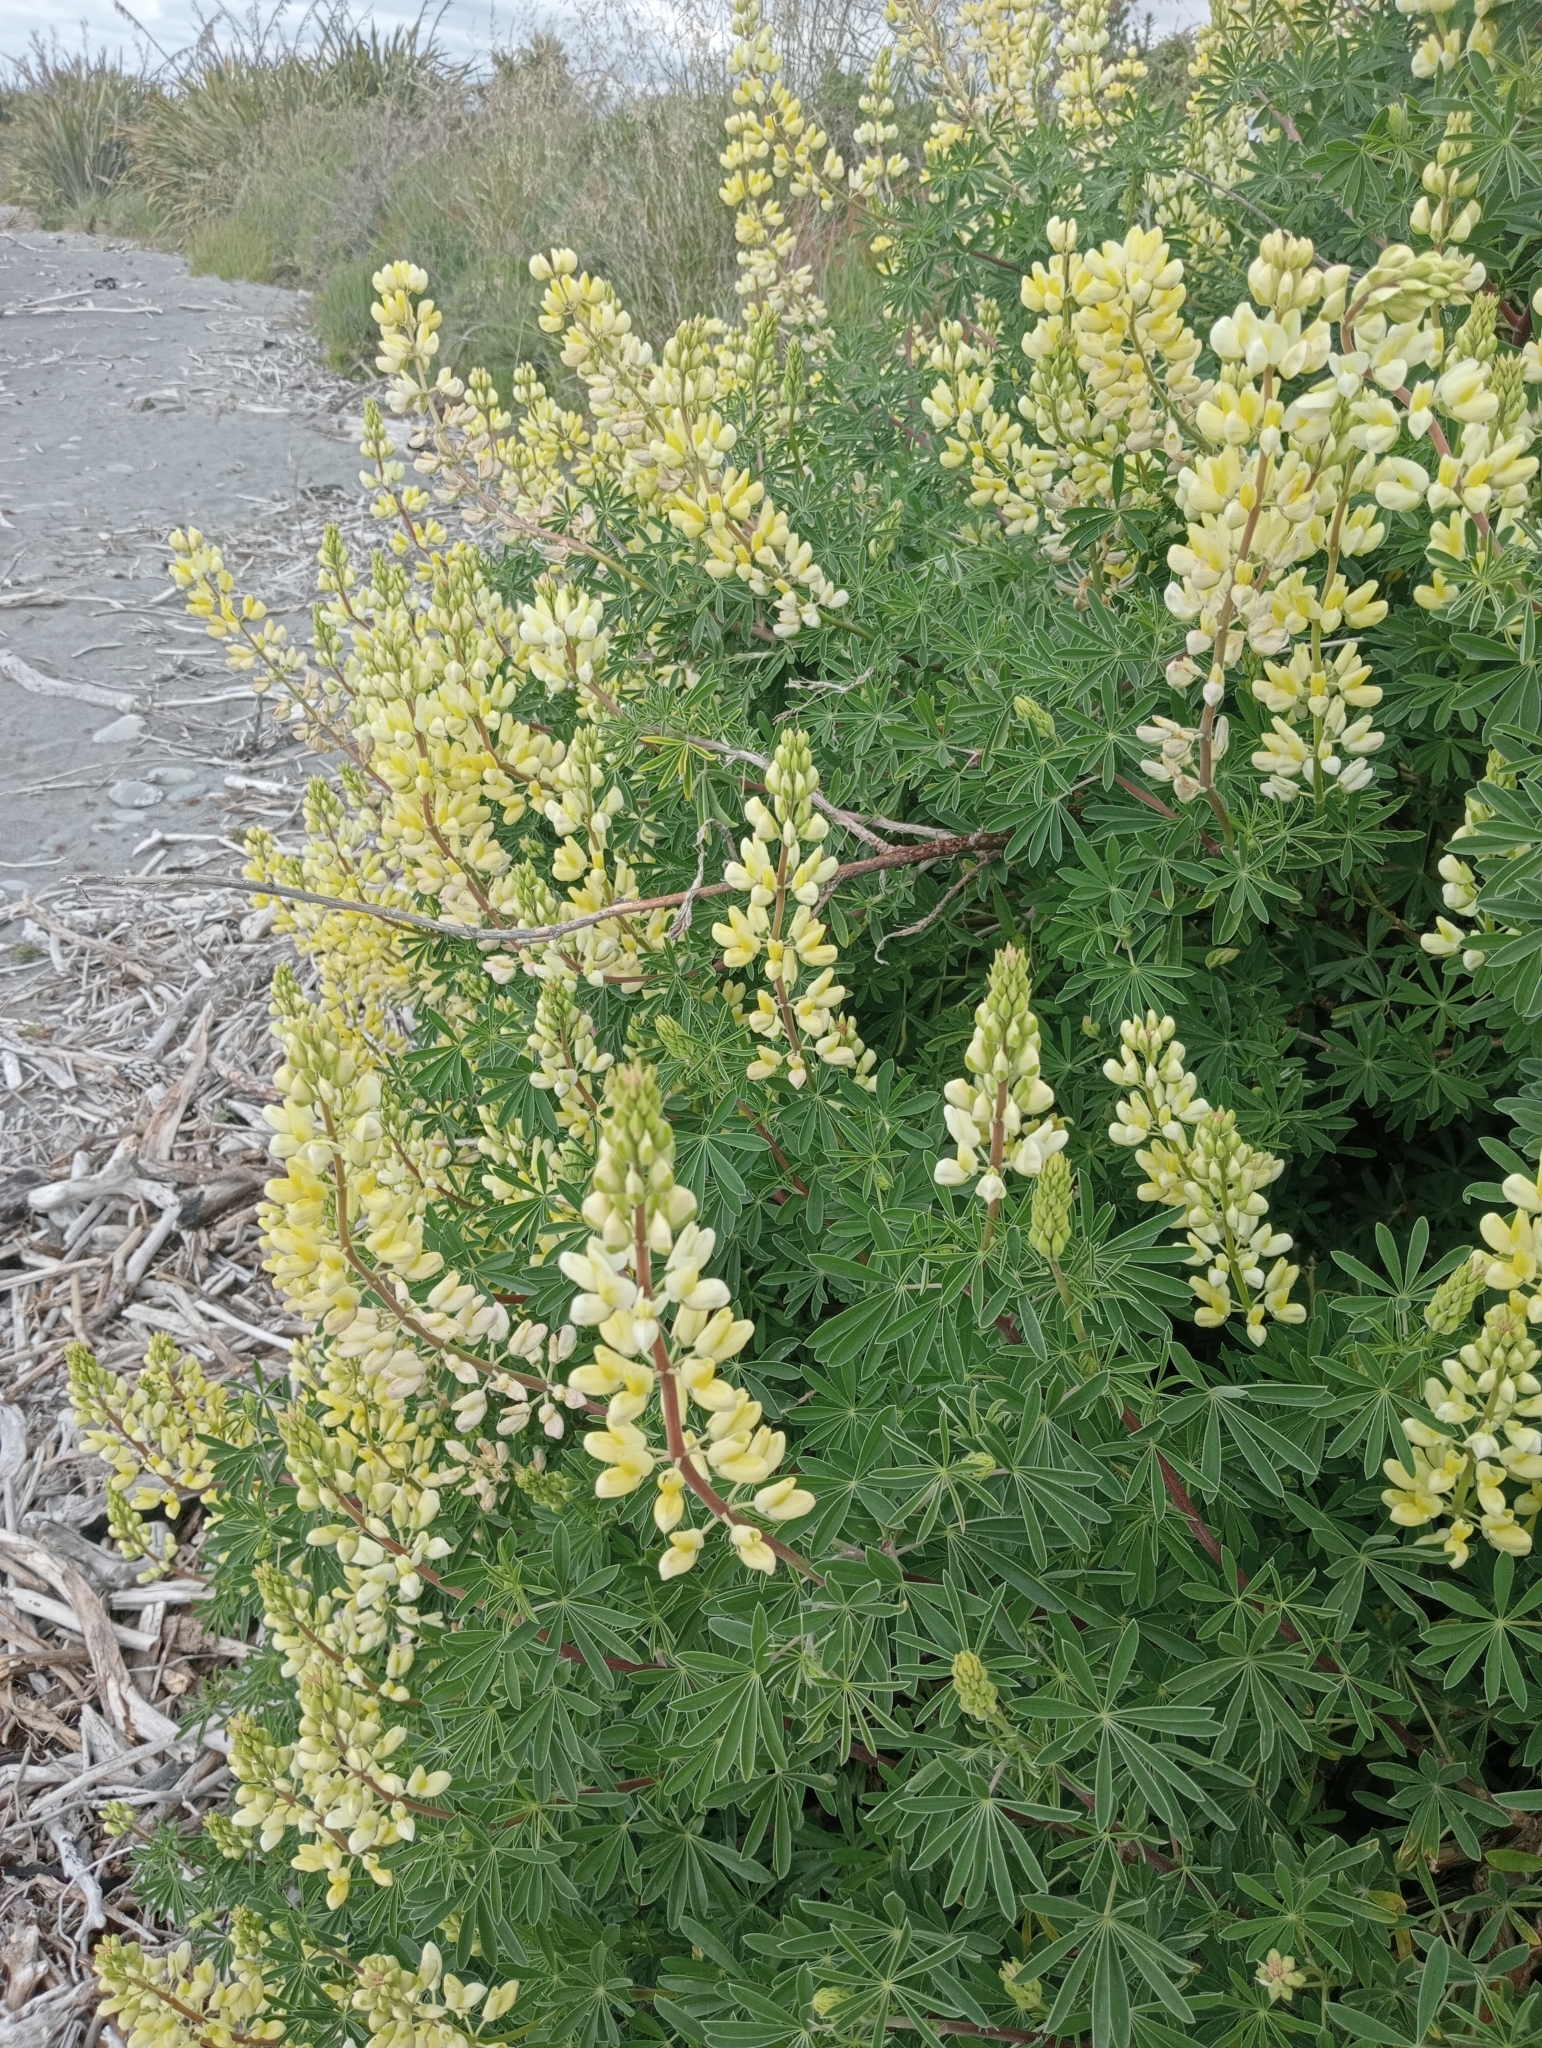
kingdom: Plantae
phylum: Tracheophyta
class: Magnoliopsida
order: Fabales
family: Fabaceae
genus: Lupinus
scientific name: Lupinus arboreus
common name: Yellow bush lupine
